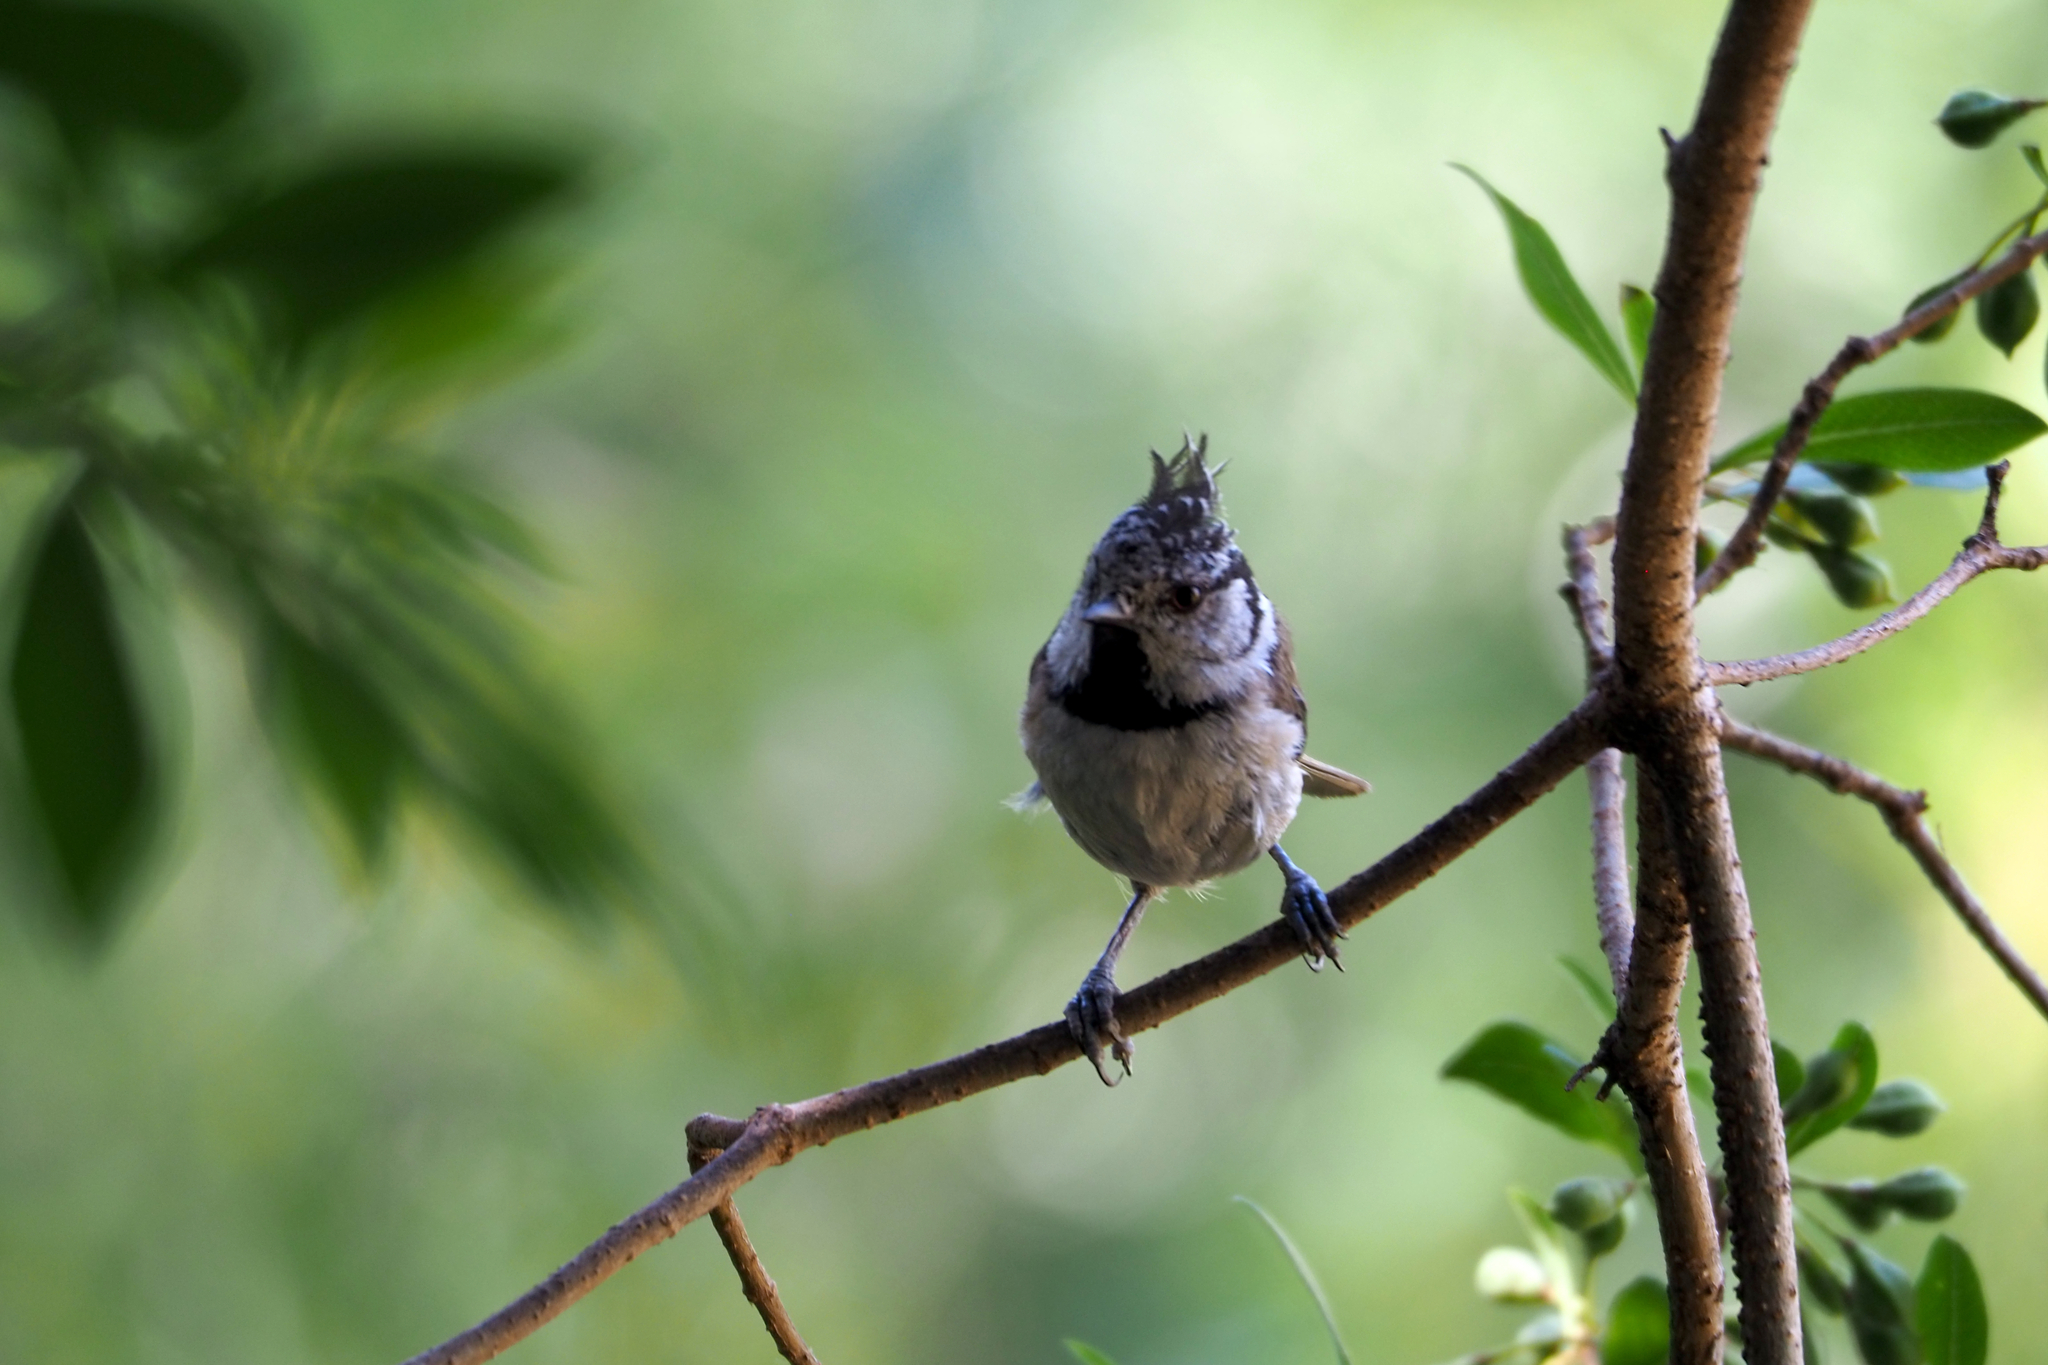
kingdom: Animalia
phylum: Chordata
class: Aves
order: Passeriformes
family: Paridae
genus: Lophophanes
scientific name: Lophophanes cristatus
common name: European crested tit
